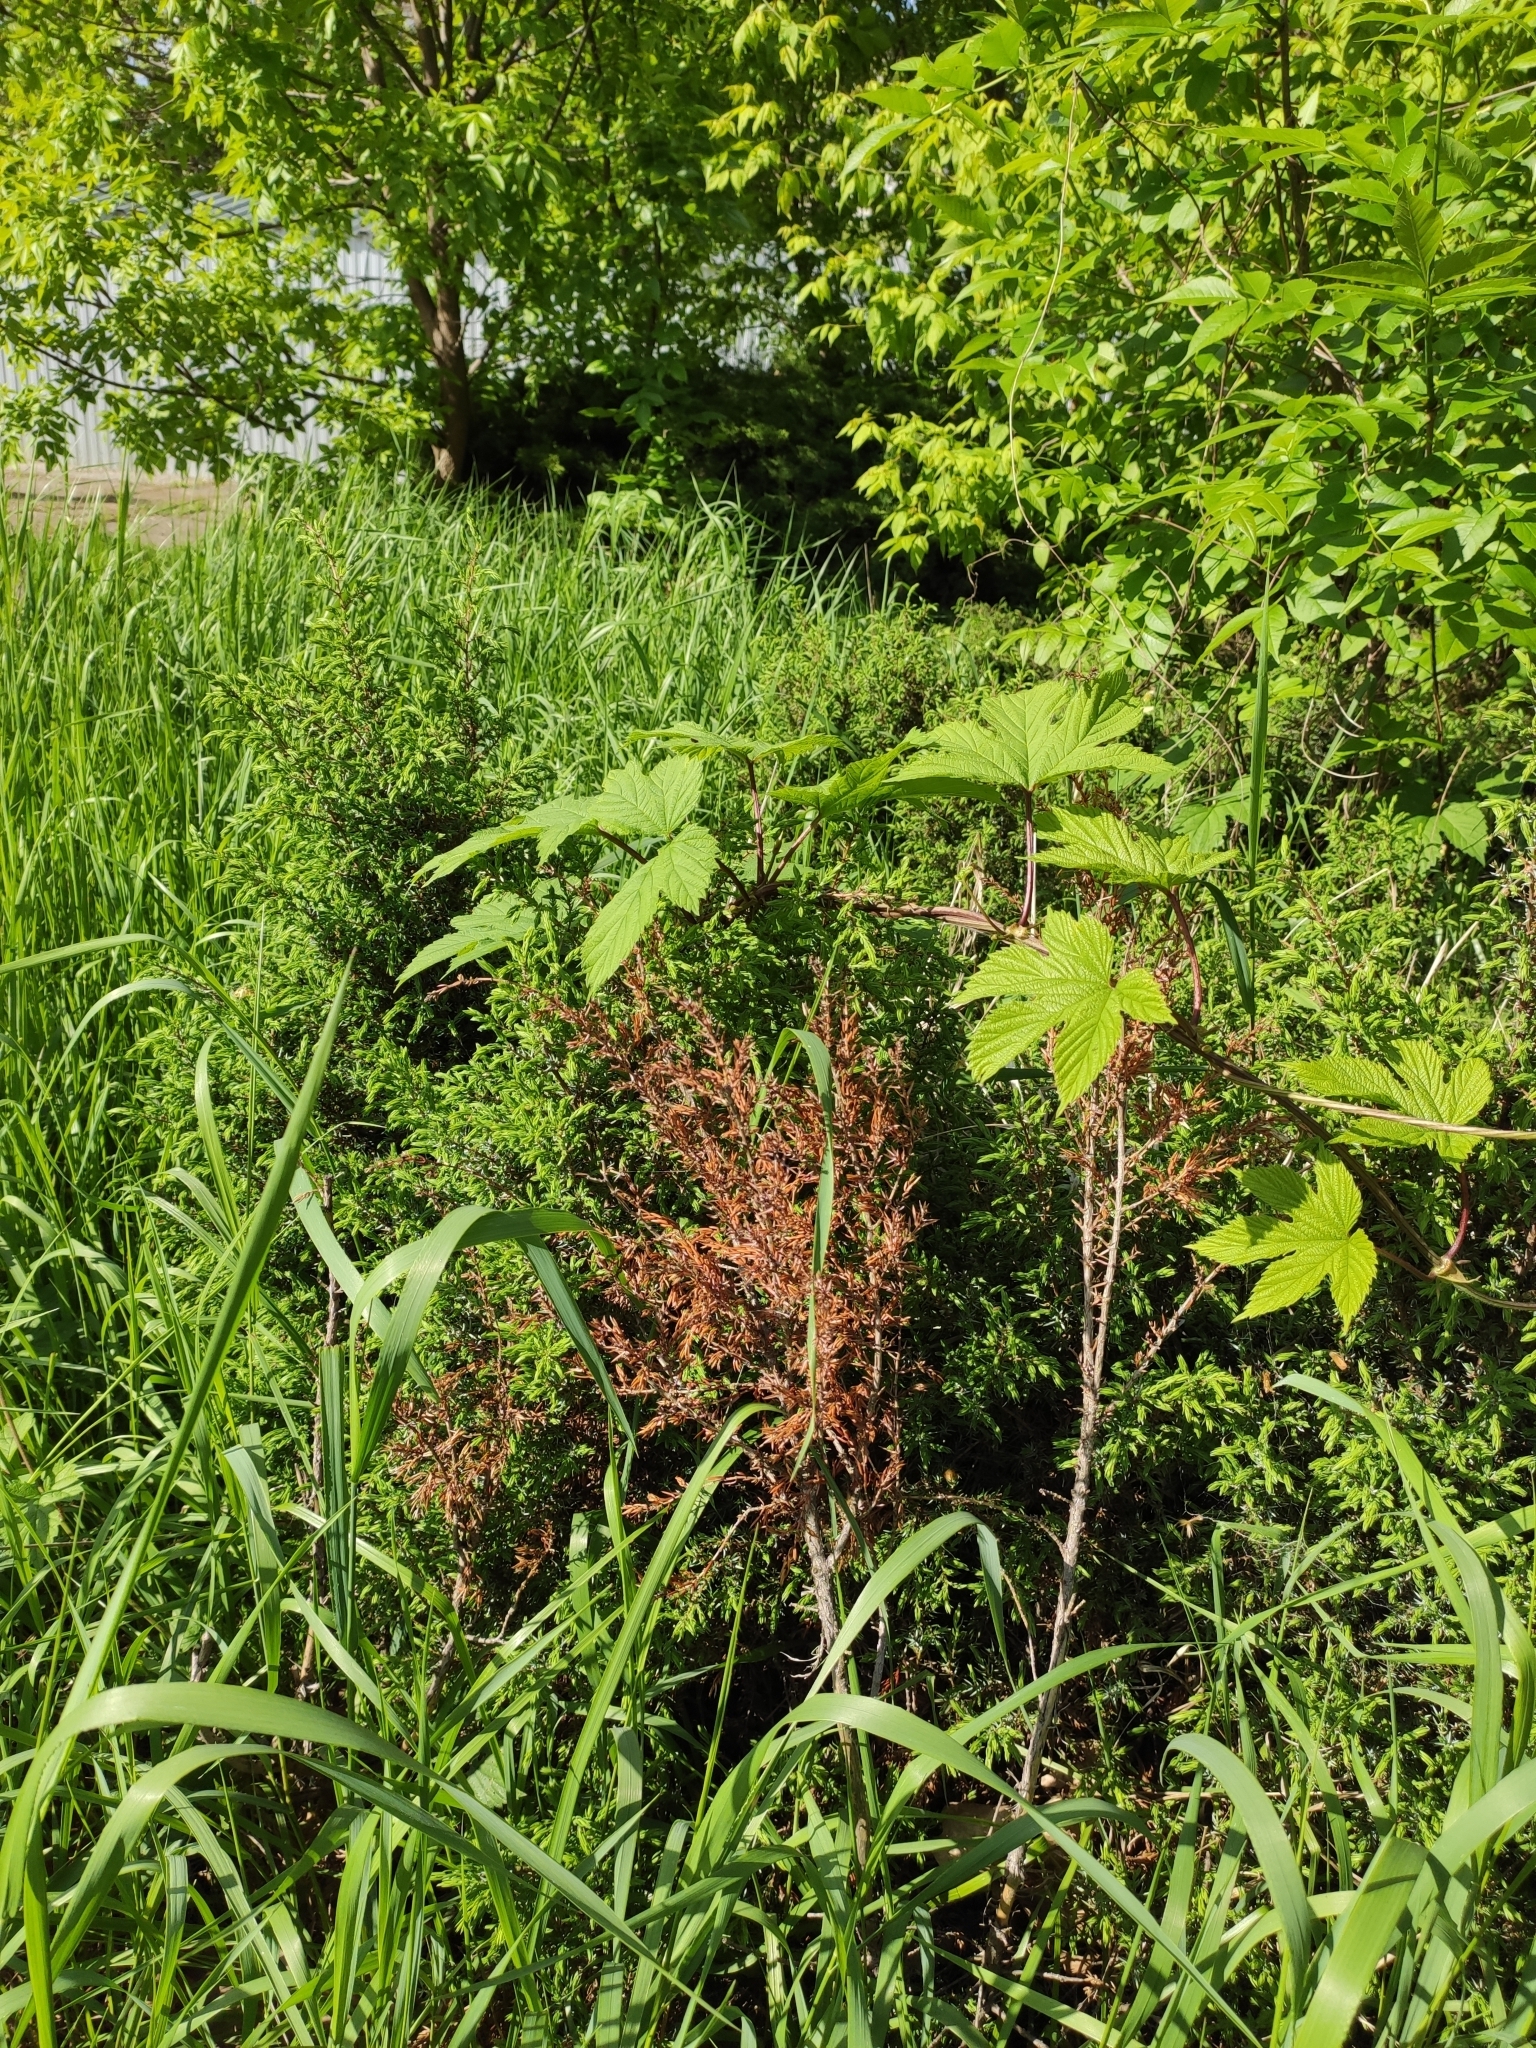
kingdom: Plantae
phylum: Tracheophyta
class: Magnoliopsida
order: Rosales
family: Cannabaceae
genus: Humulus
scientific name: Humulus lupulus
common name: Hop
